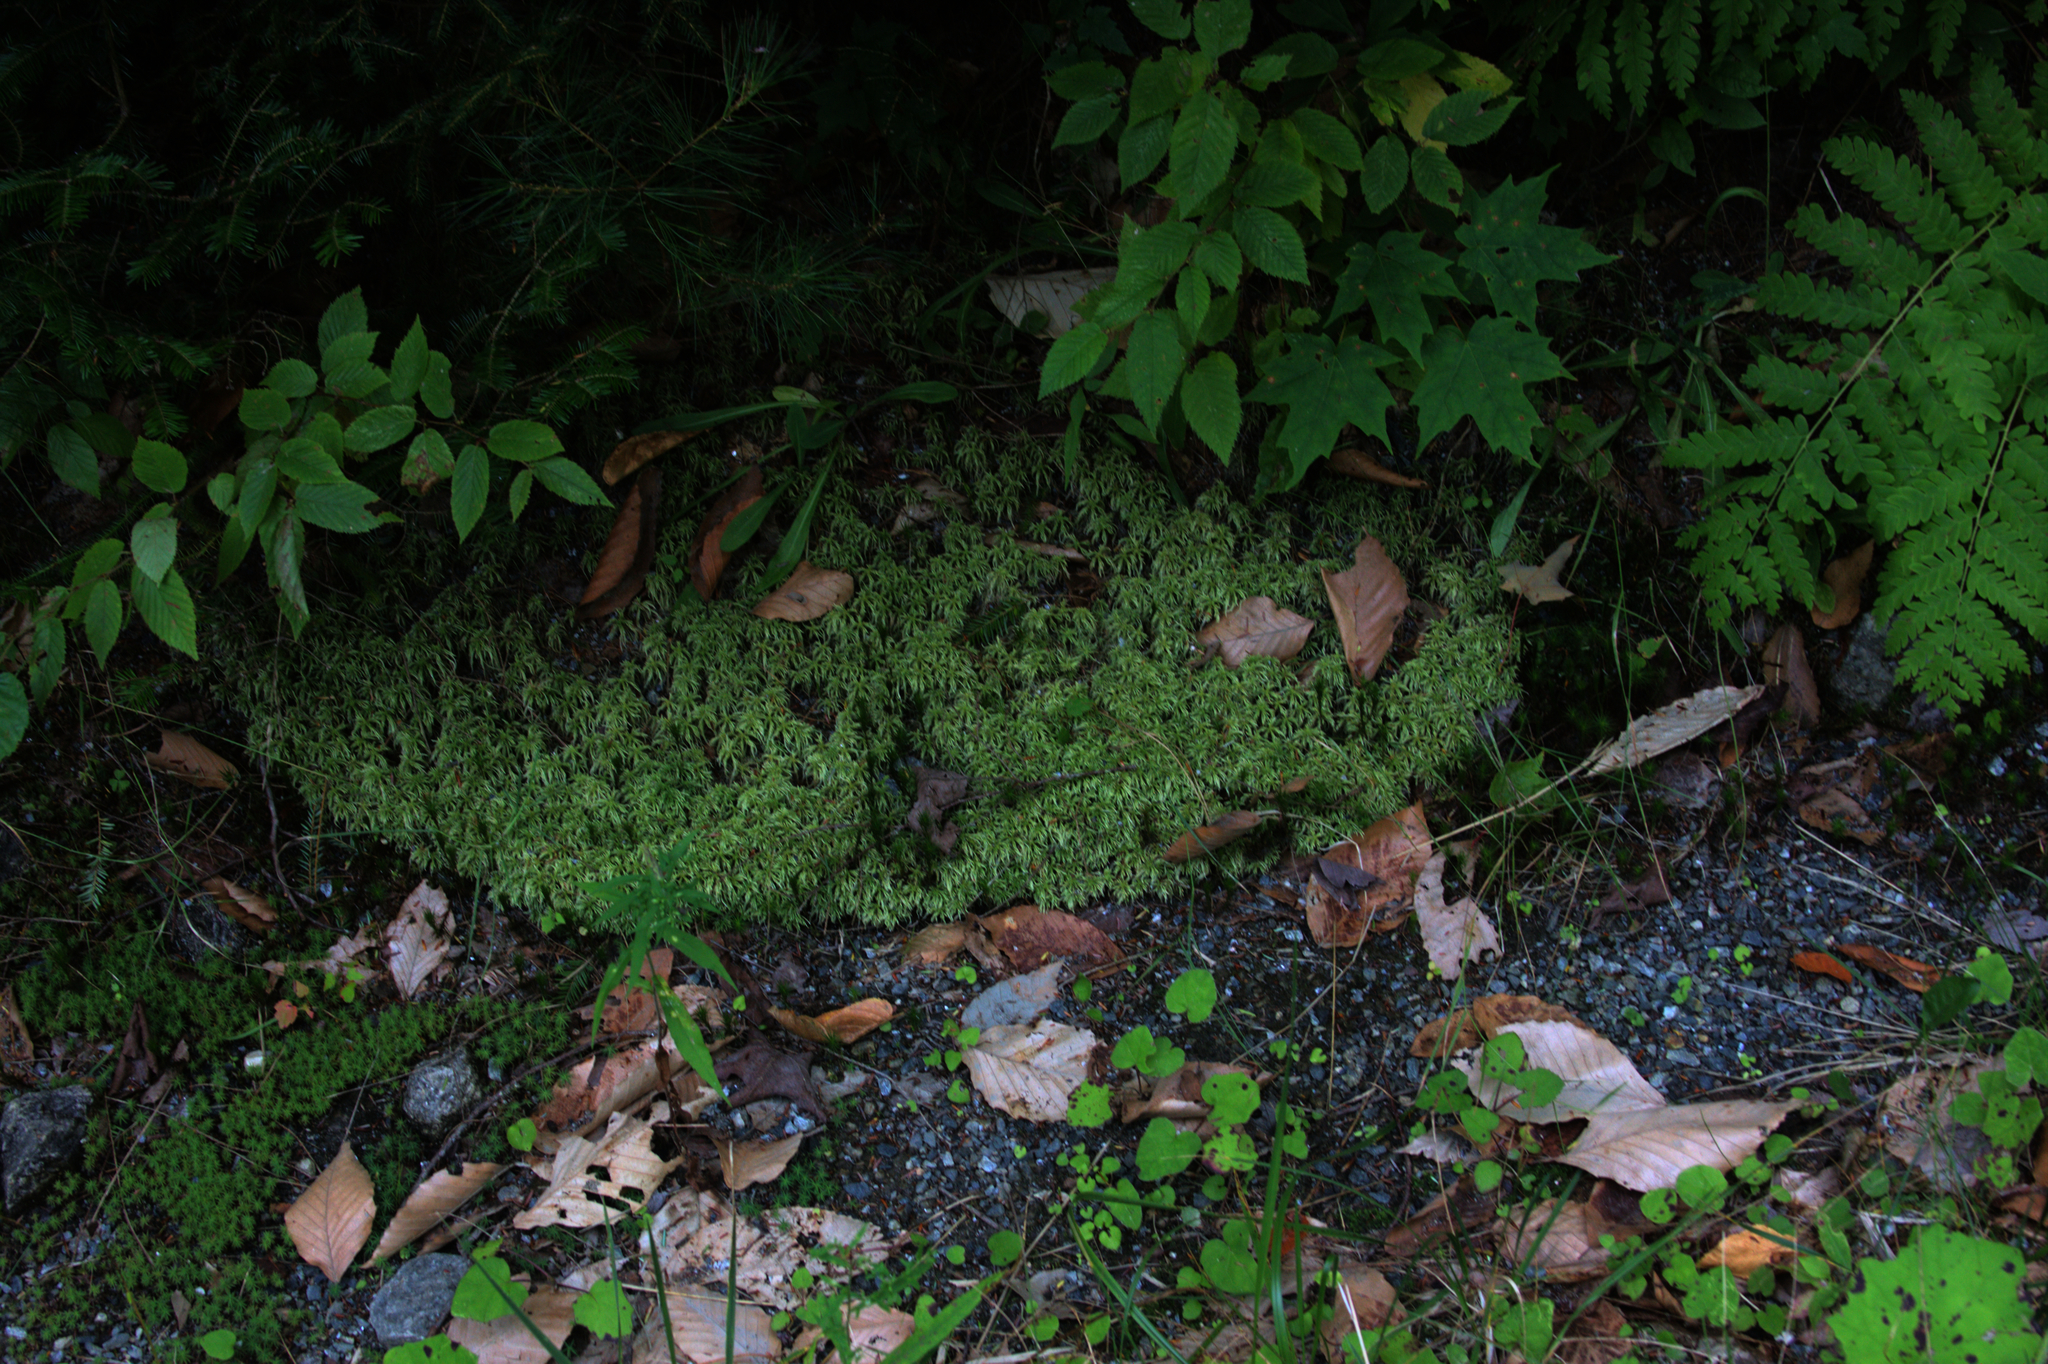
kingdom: Plantae
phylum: Tracheophyta
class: Polypodiopsida
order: Osmundales
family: Osmundaceae
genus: Claytosmunda
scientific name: Claytosmunda claytoniana
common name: Clayton's fern
